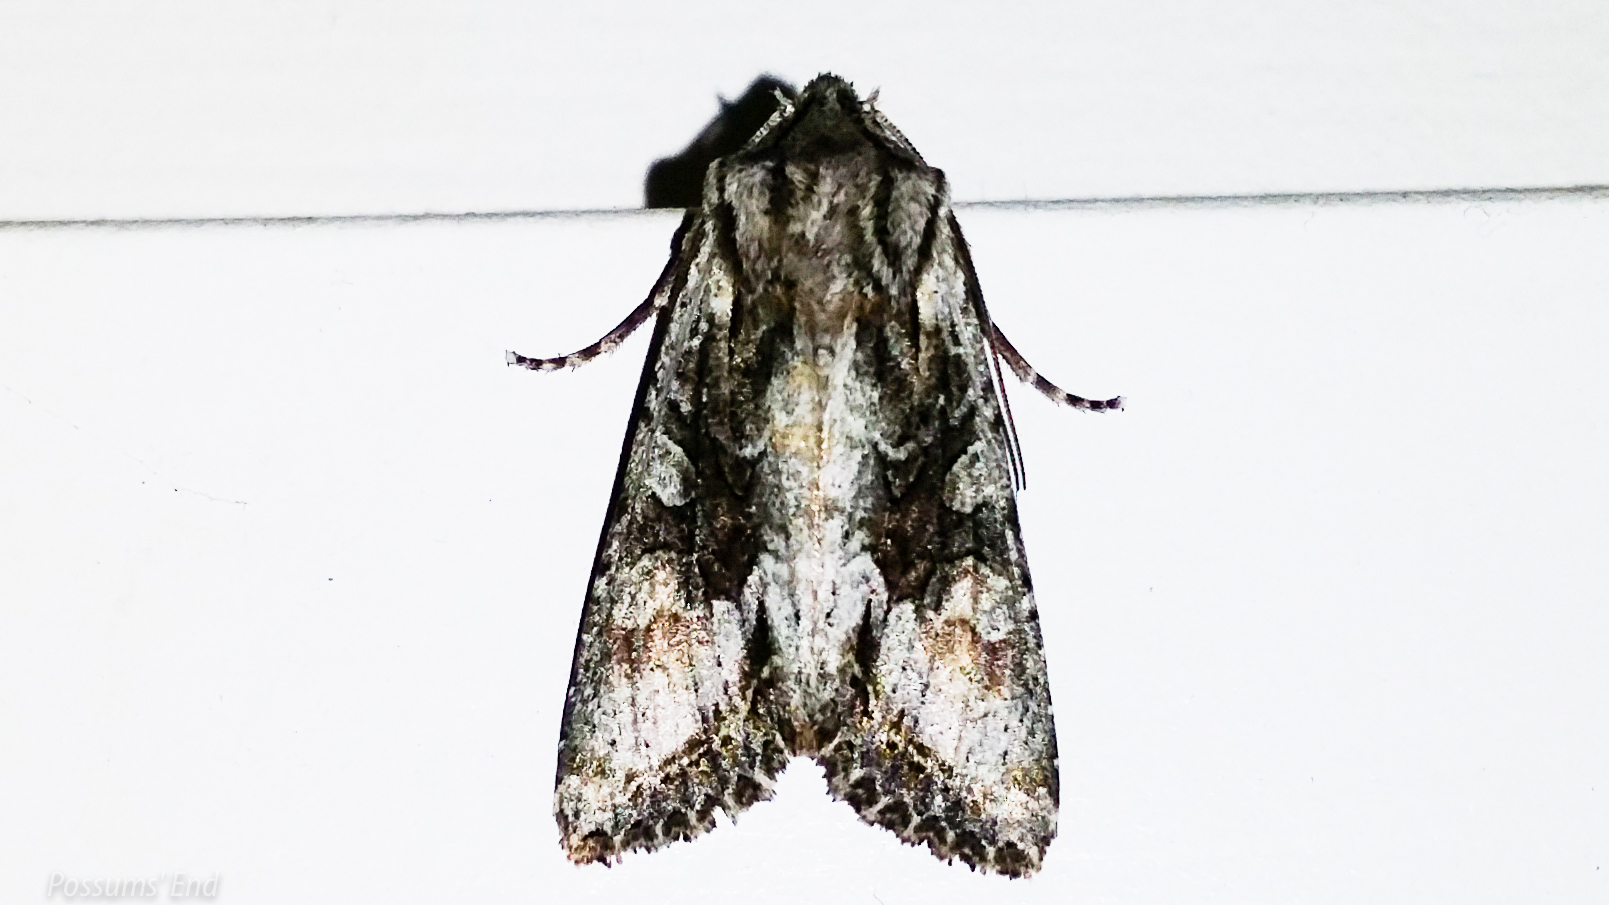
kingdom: Animalia
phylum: Arthropoda
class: Insecta
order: Lepidoptera
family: Noctuidae
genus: Ichneutica
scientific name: Ichneutica mutans
